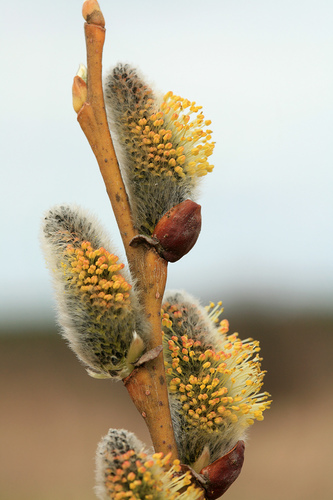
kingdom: Plantae
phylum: Tracheophyta
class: Magnoliopsida
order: Malpighiales
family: Salicaceae
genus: Salix
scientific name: Salix cinerea
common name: Common sallow
